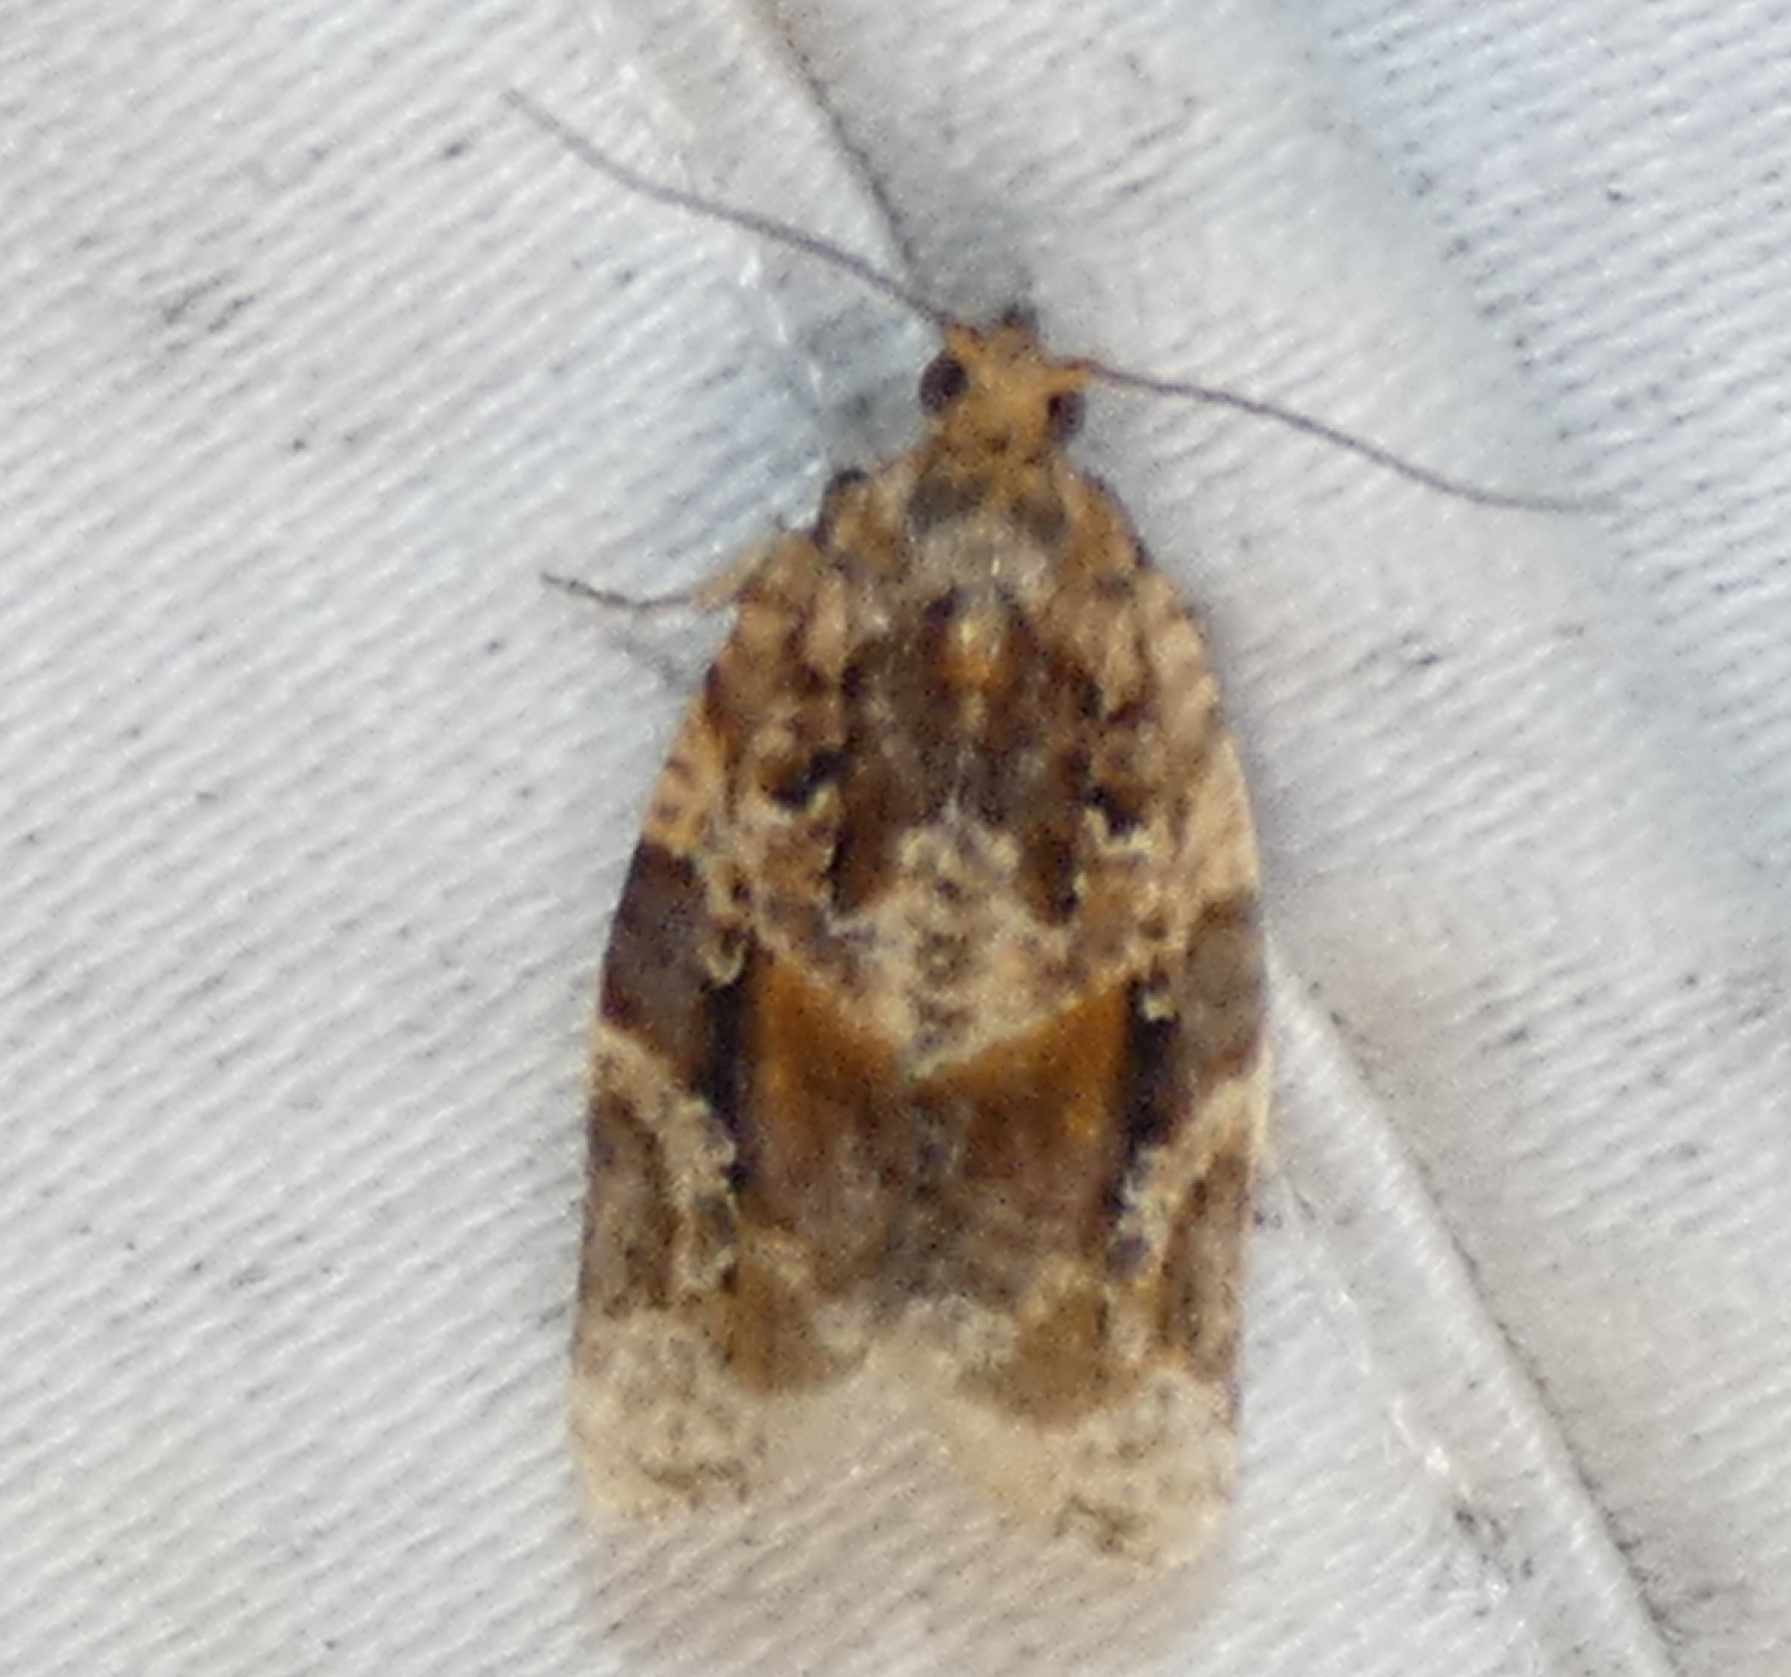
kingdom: Animalia
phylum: Arthropoda
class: Insecta
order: Lepidoptera
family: Tortricidae
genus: Argyrotaenia
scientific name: Argyrotaenia velutinana
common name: Red-banded leafroller moth
